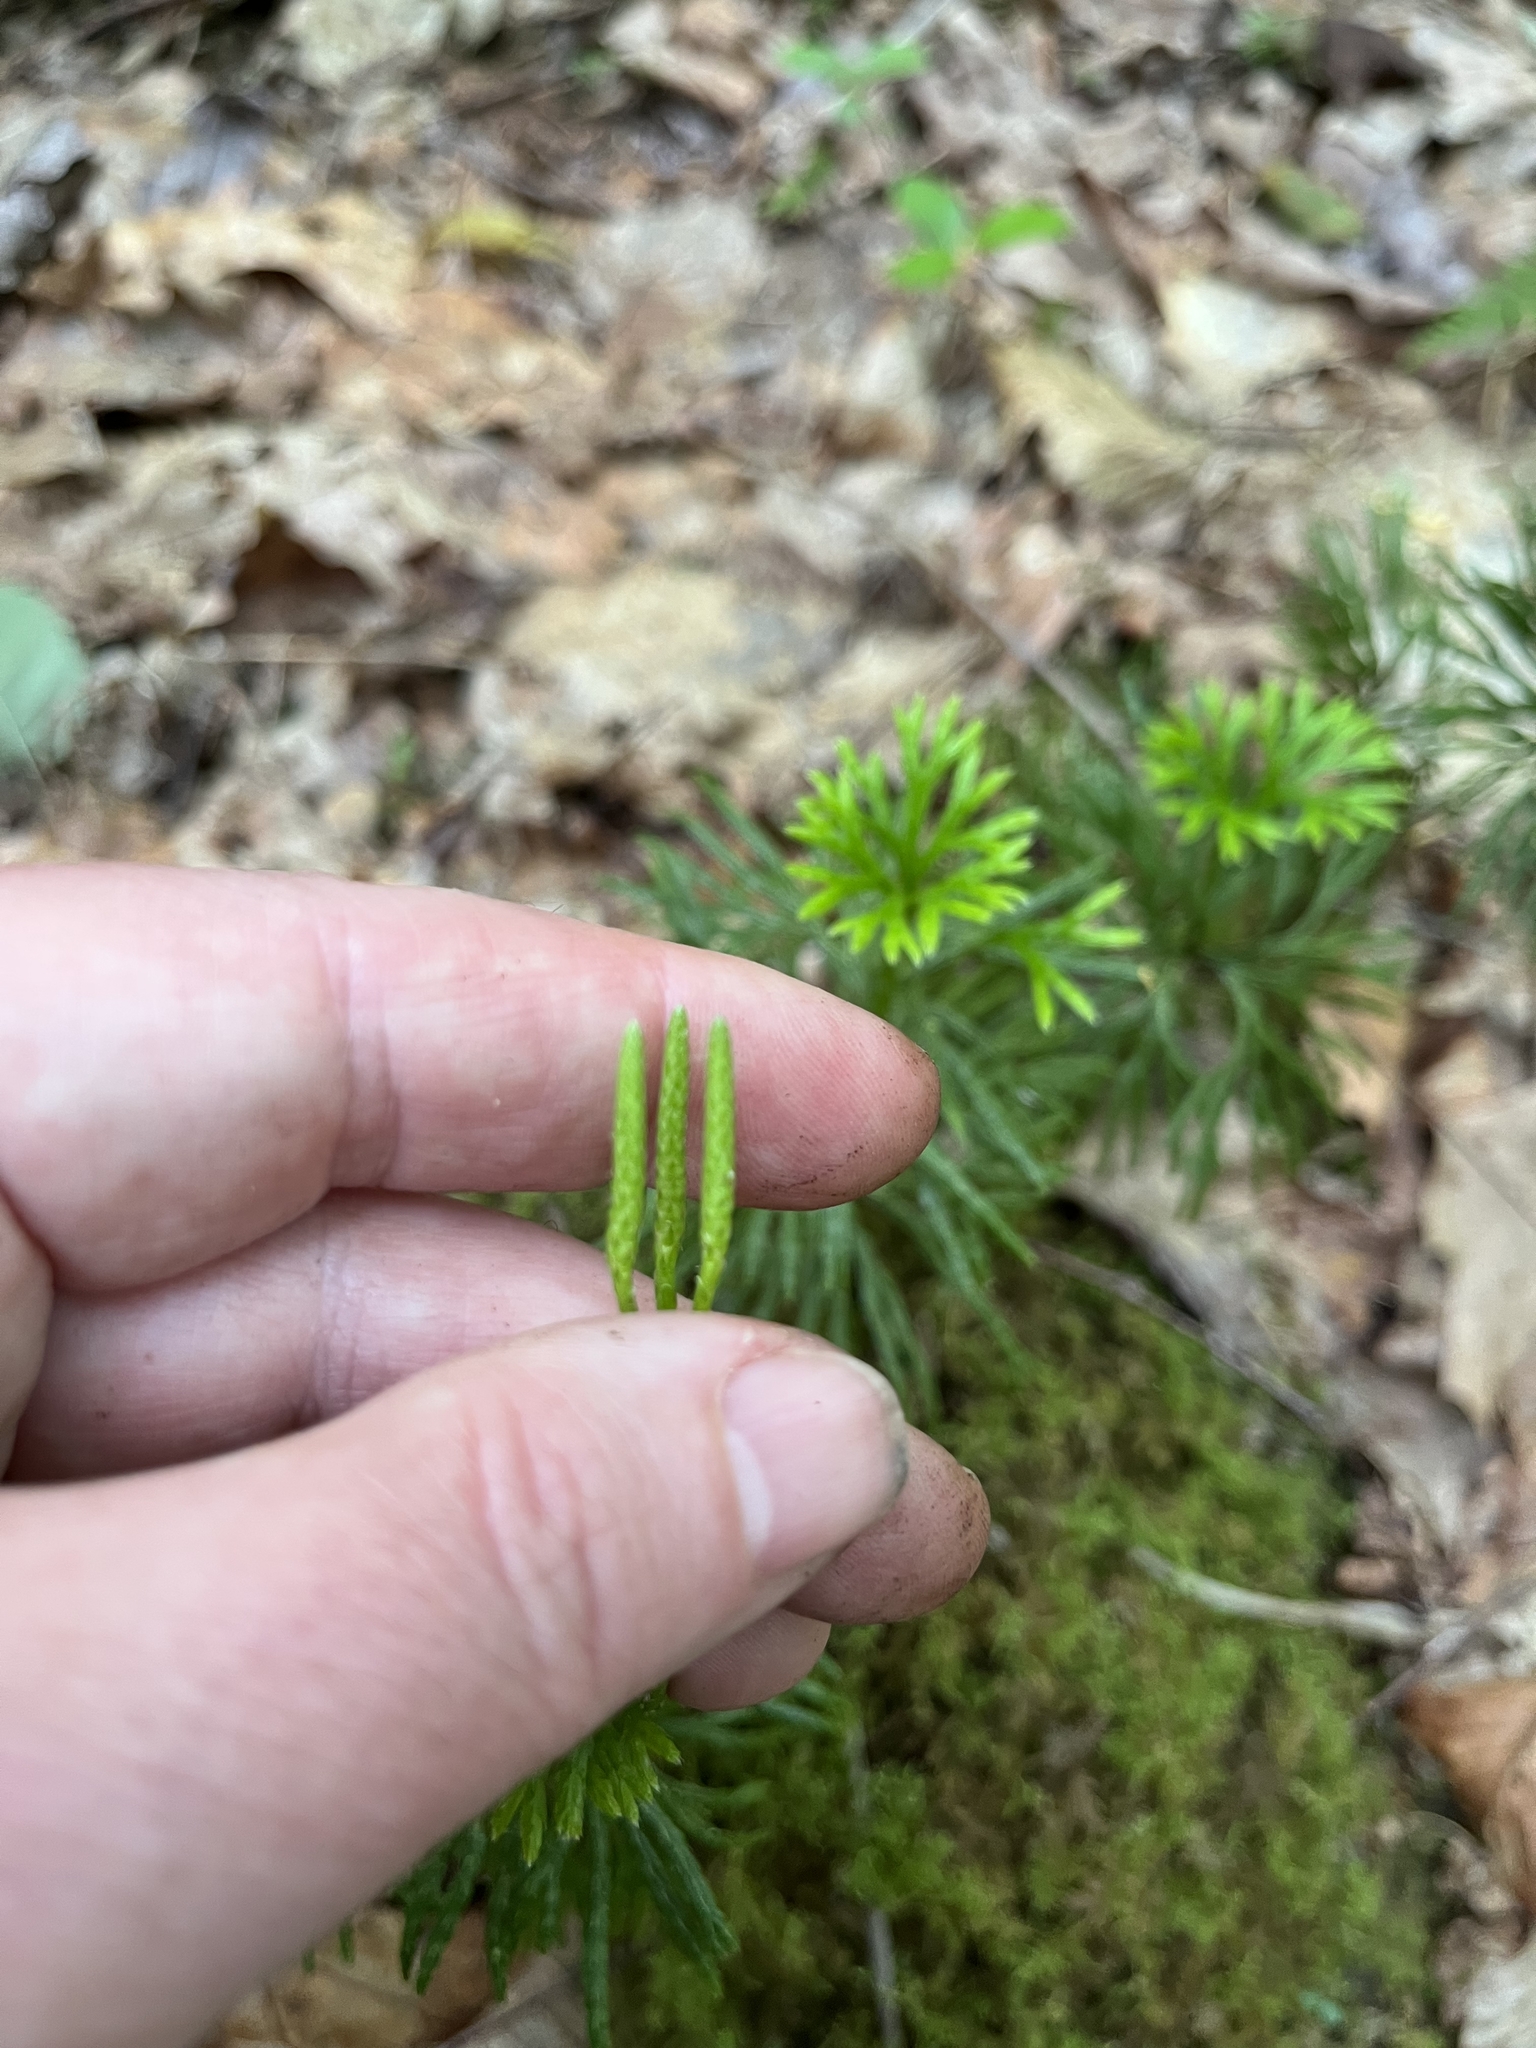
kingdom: Plantae
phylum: Tracheophyta
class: Lycopodiopsida
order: Lycopodiales
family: Lycopodiaceae
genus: Diphasiastrum
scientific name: Diphasiastrum digitatum
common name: Southern running-pine
